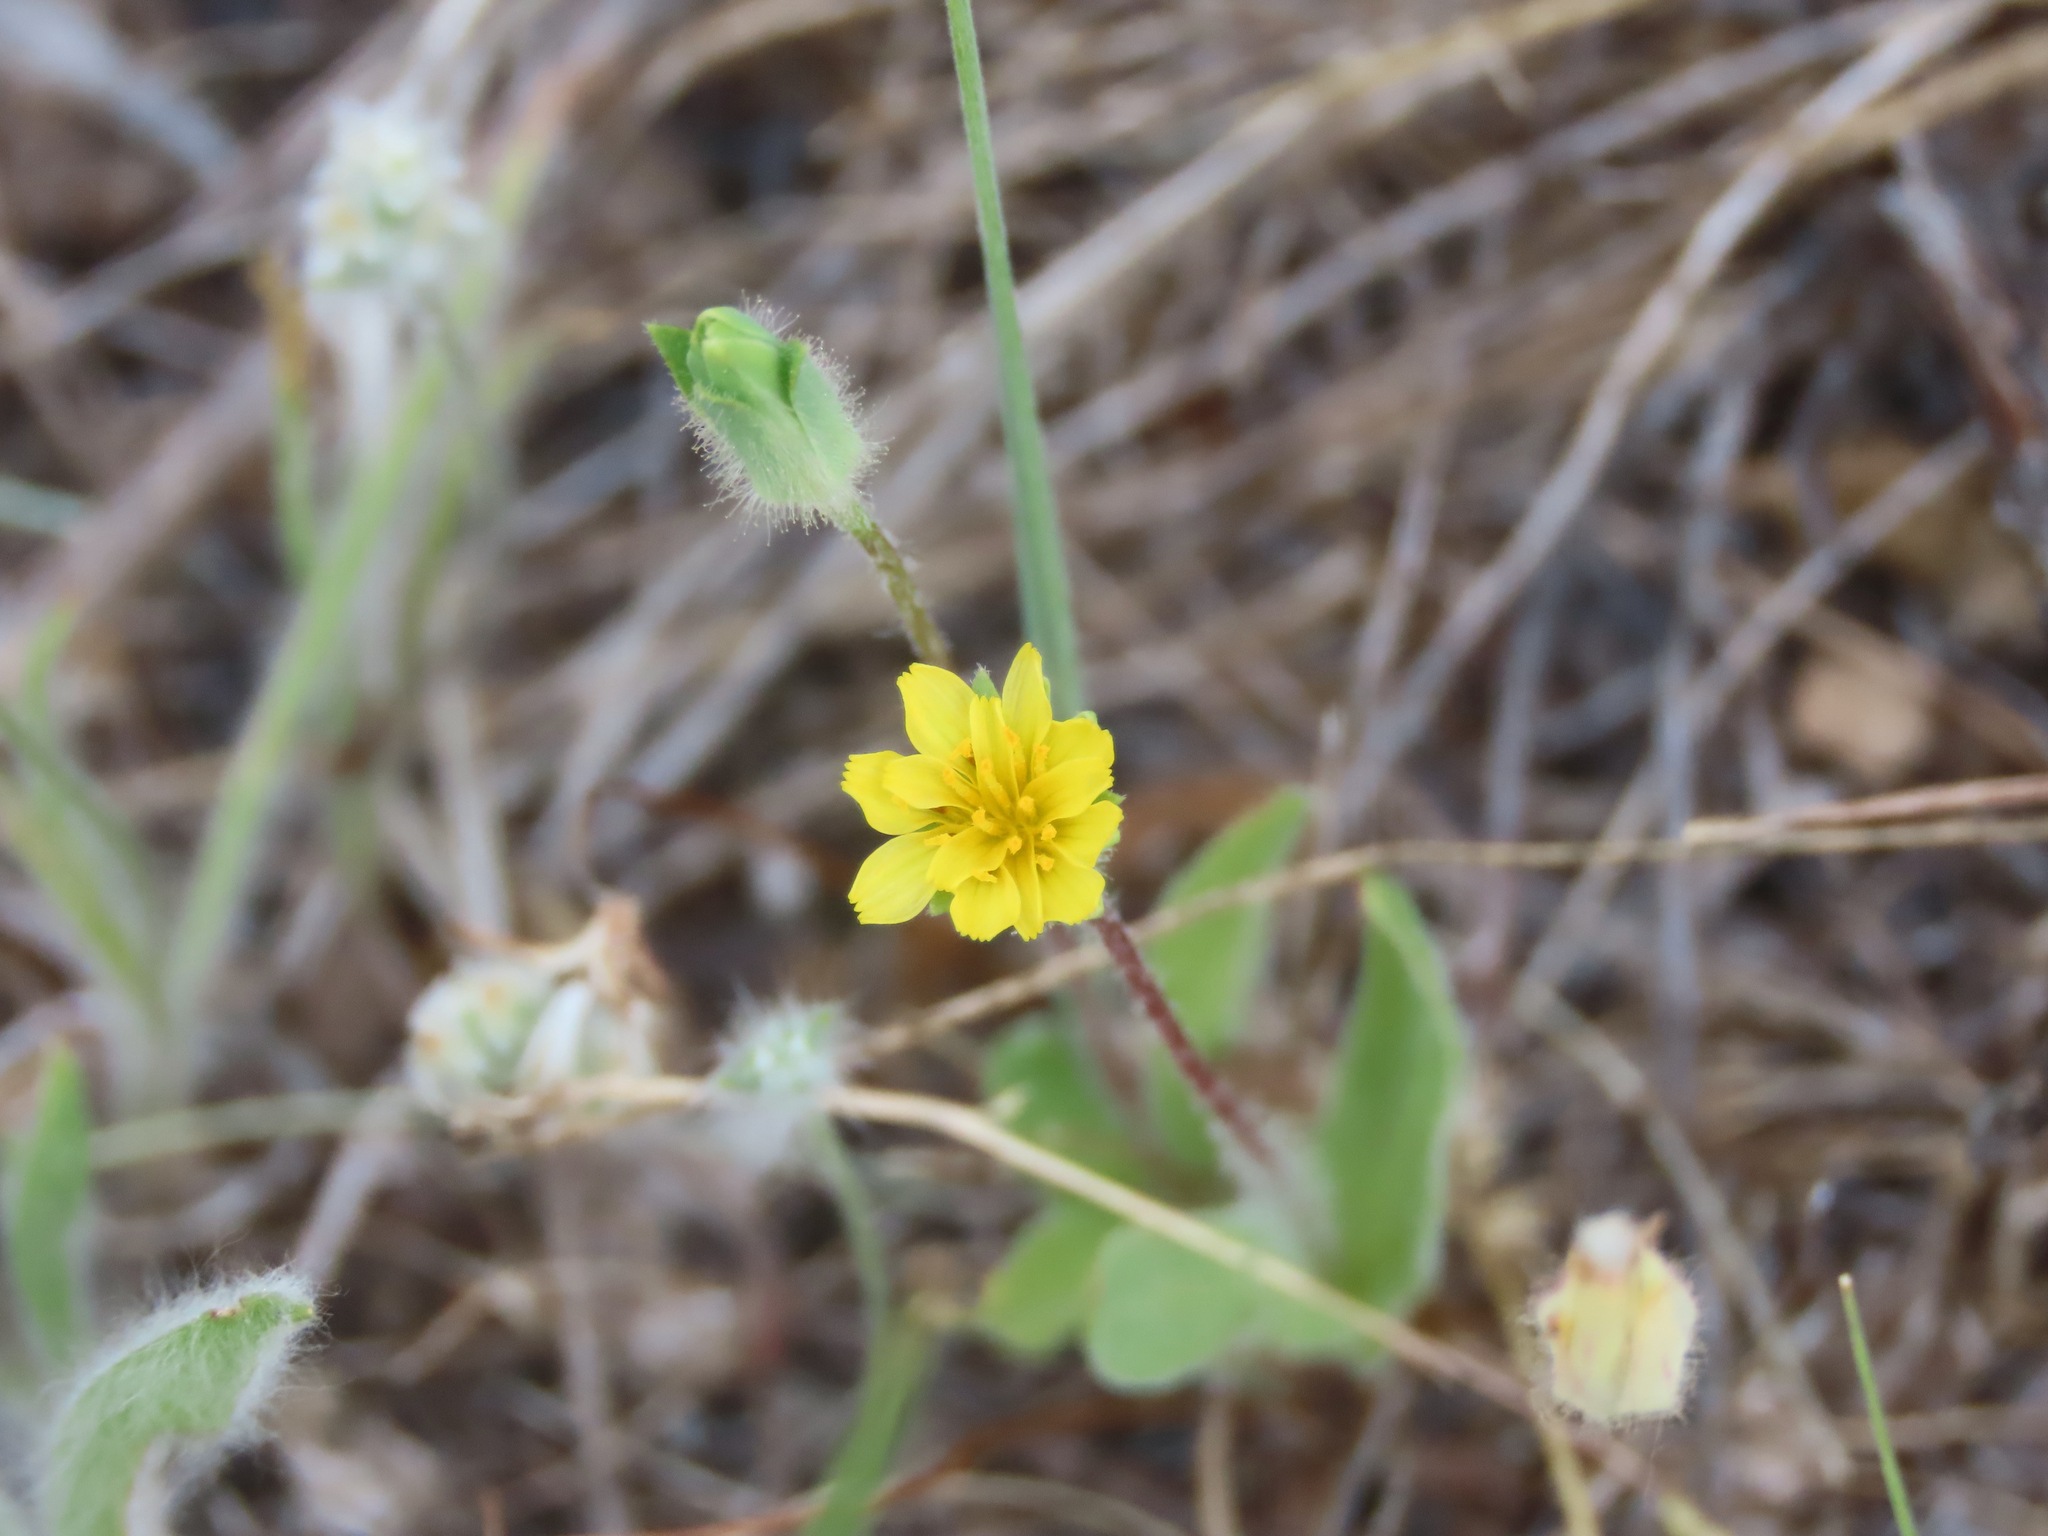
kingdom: Plantae
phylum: Tracheophyta
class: Magnoliopsida
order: Asterales
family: Asteraceae
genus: Agoseris
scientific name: Agoseris heterophylla
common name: Annual agoseris
